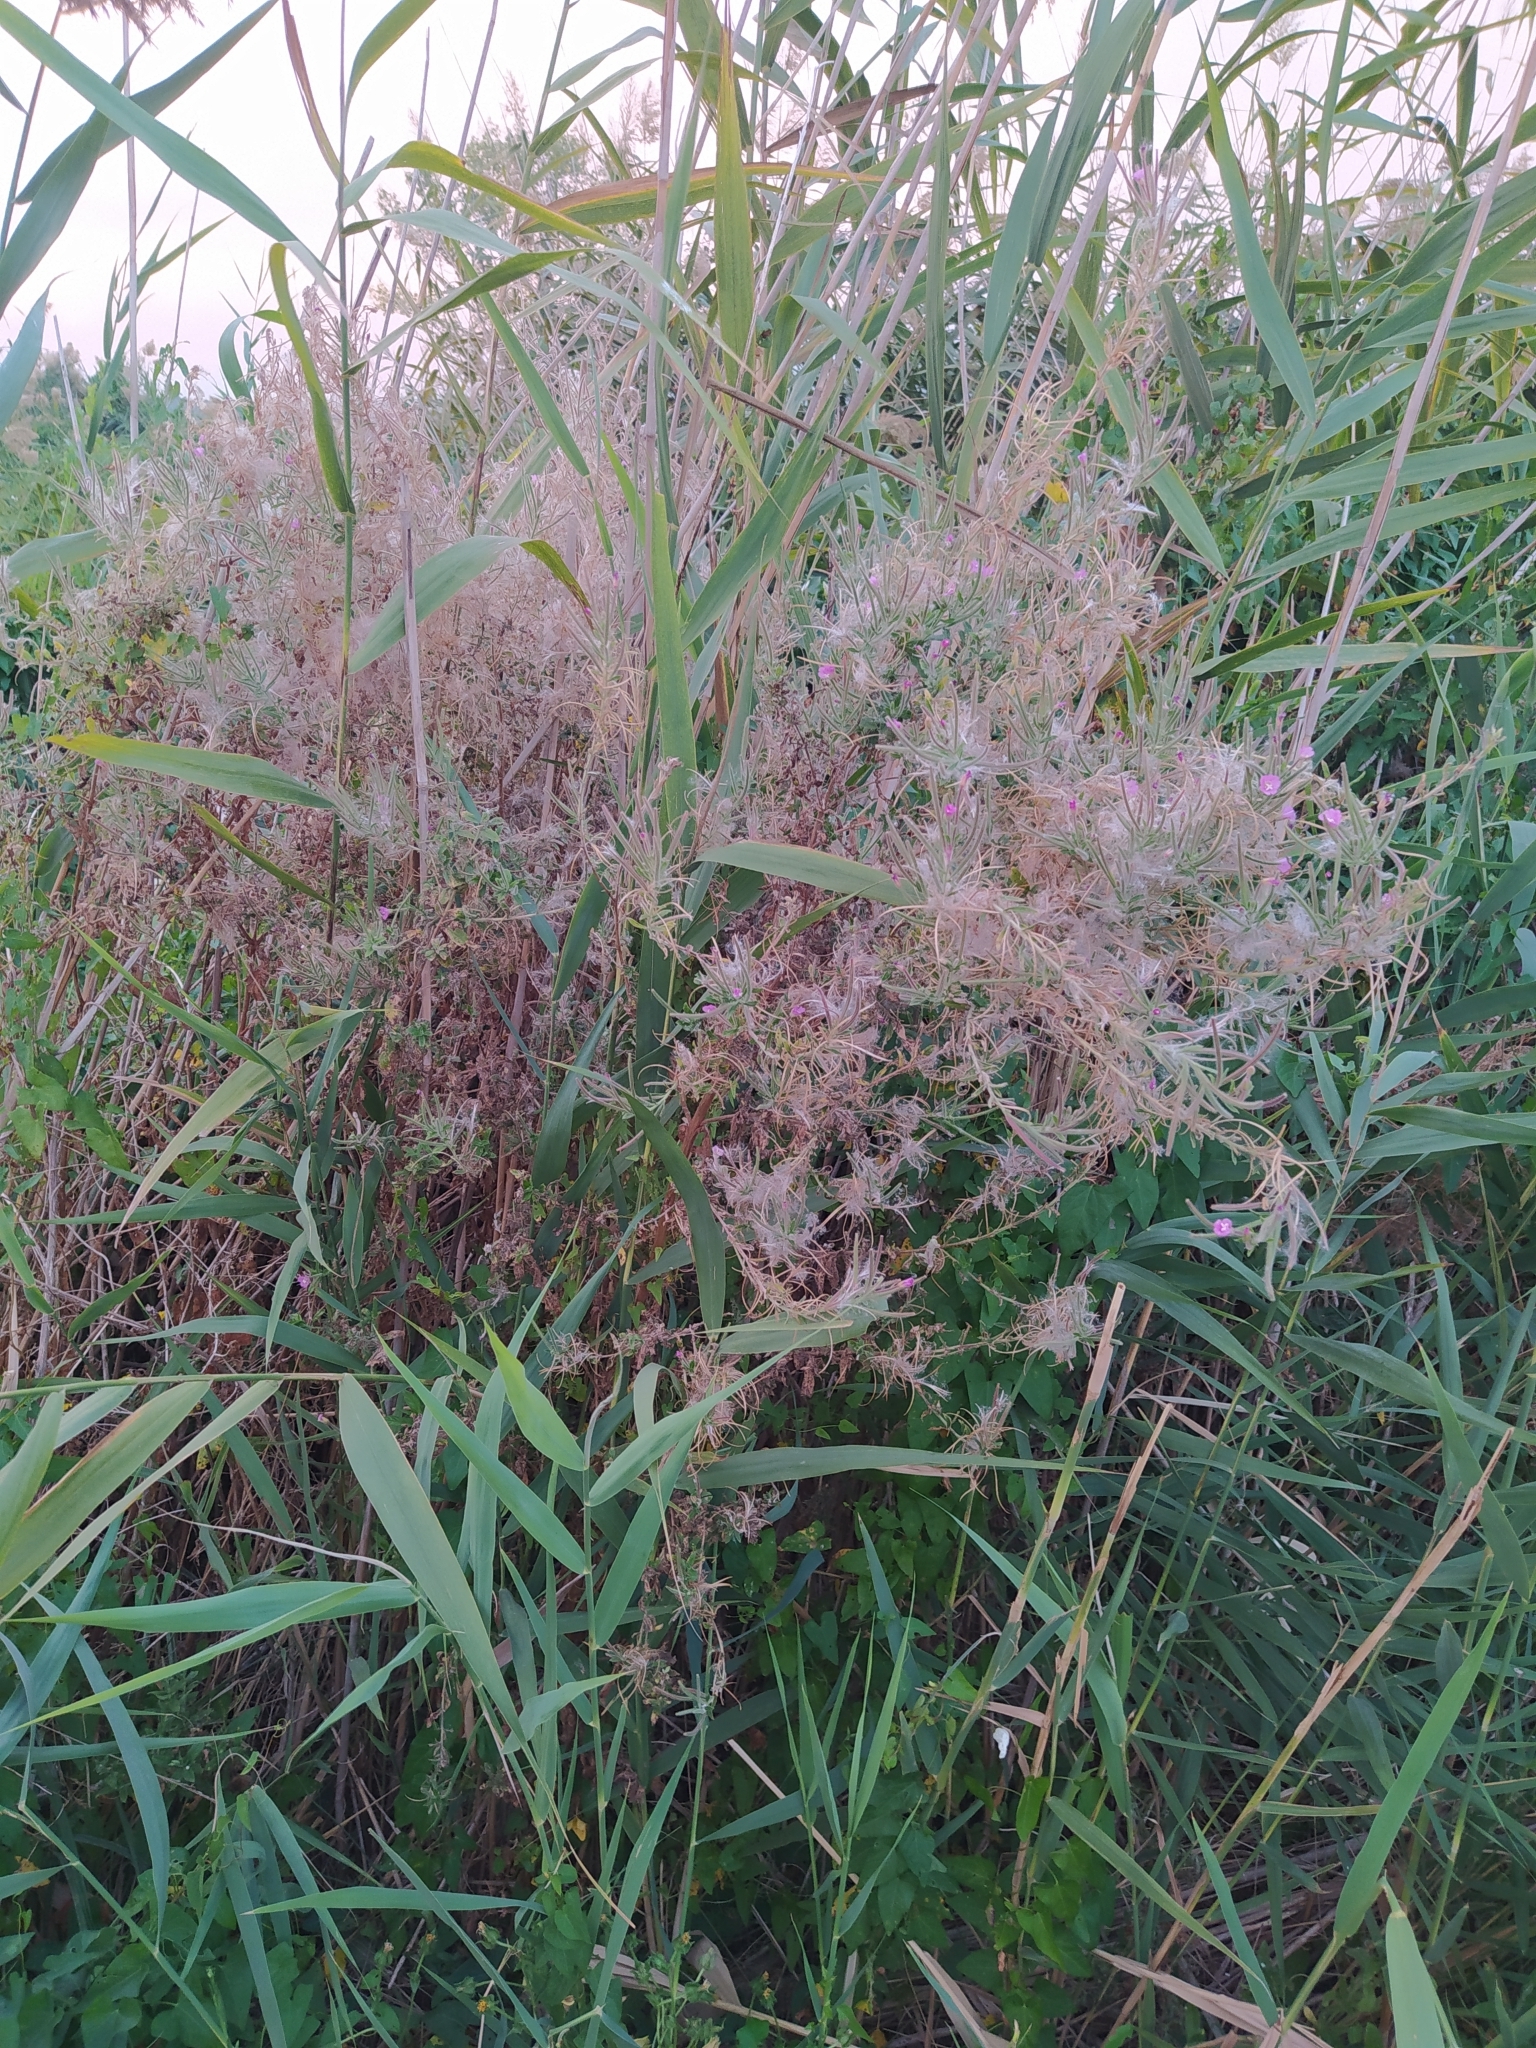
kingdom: Plantae
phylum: Tracheophyta
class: Magnoliopsida
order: Myrtales
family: Onagraceae
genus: Epilobium
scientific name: Epilobium hirsutum
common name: Great willowherb
